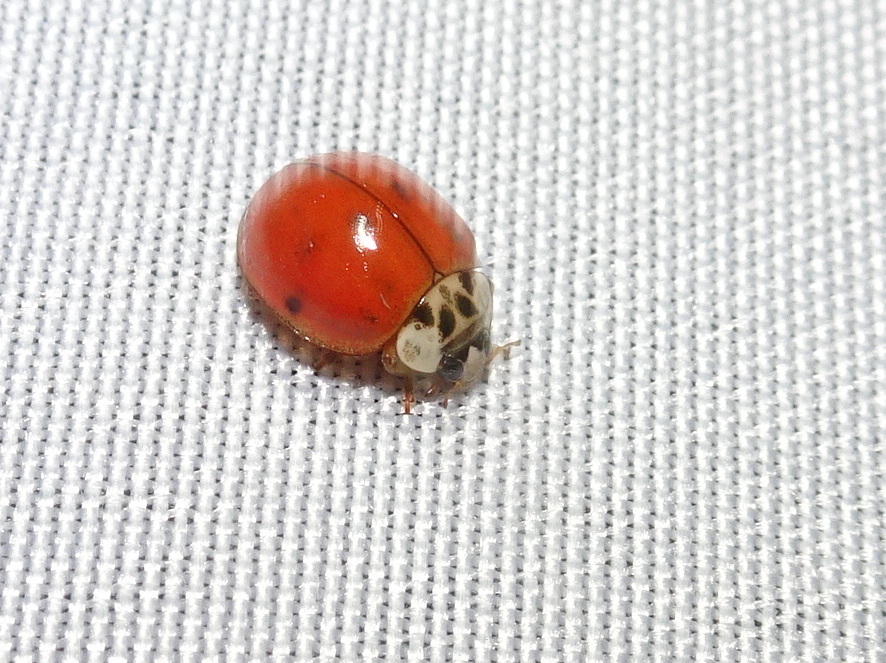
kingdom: Animalia
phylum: Arthropoda
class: Insecta
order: Coleoptera
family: Coccinellidae
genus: Harmonia
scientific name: Harmonia axyridis
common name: Harlequin ladybird
